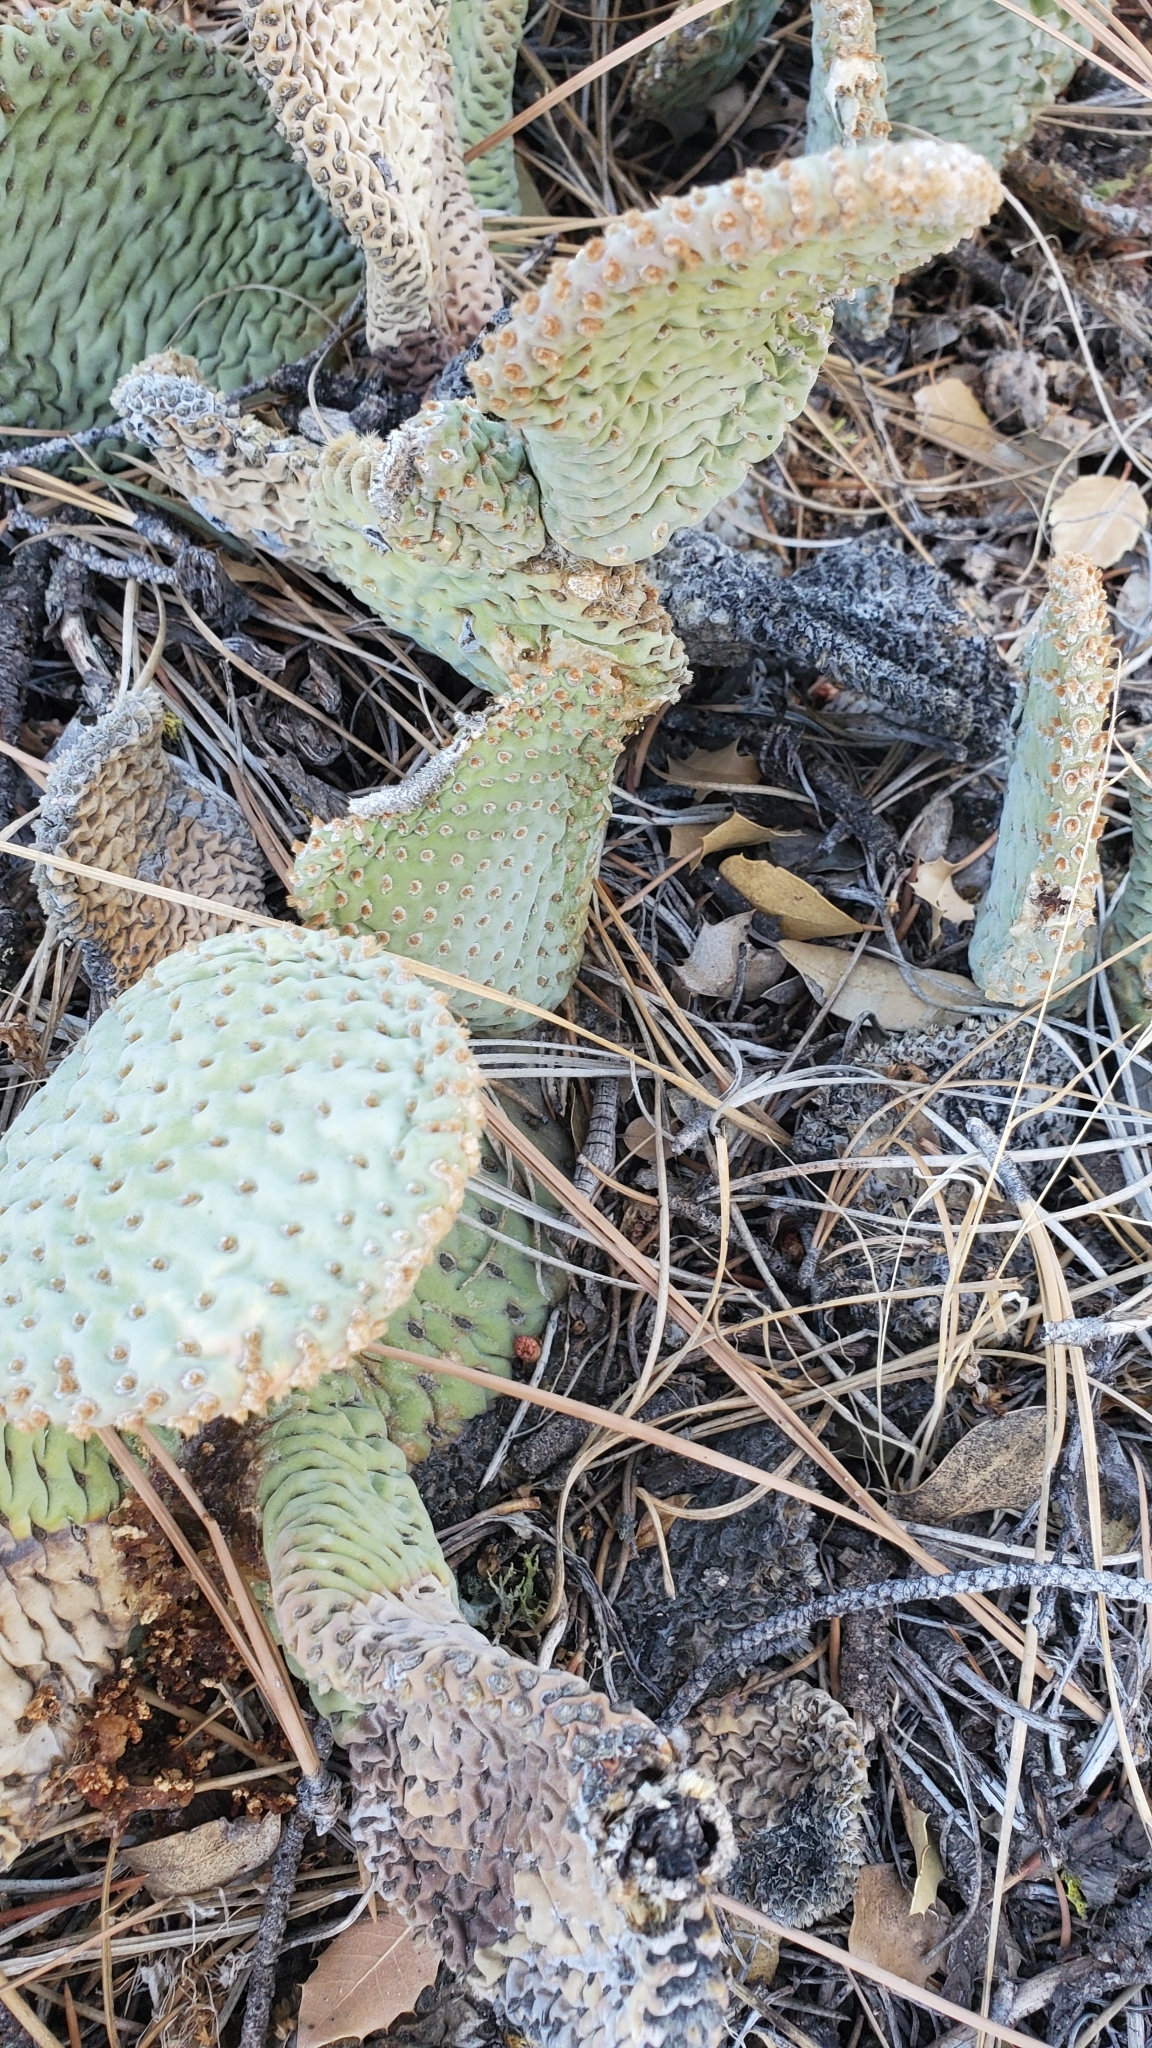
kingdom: Plantae
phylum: Tracheophyta
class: Magnoliopsida
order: Caryophyllales
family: Cactaceae
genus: Opuntia
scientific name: Opuntia basilaris
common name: Beavertail prickly-pear
